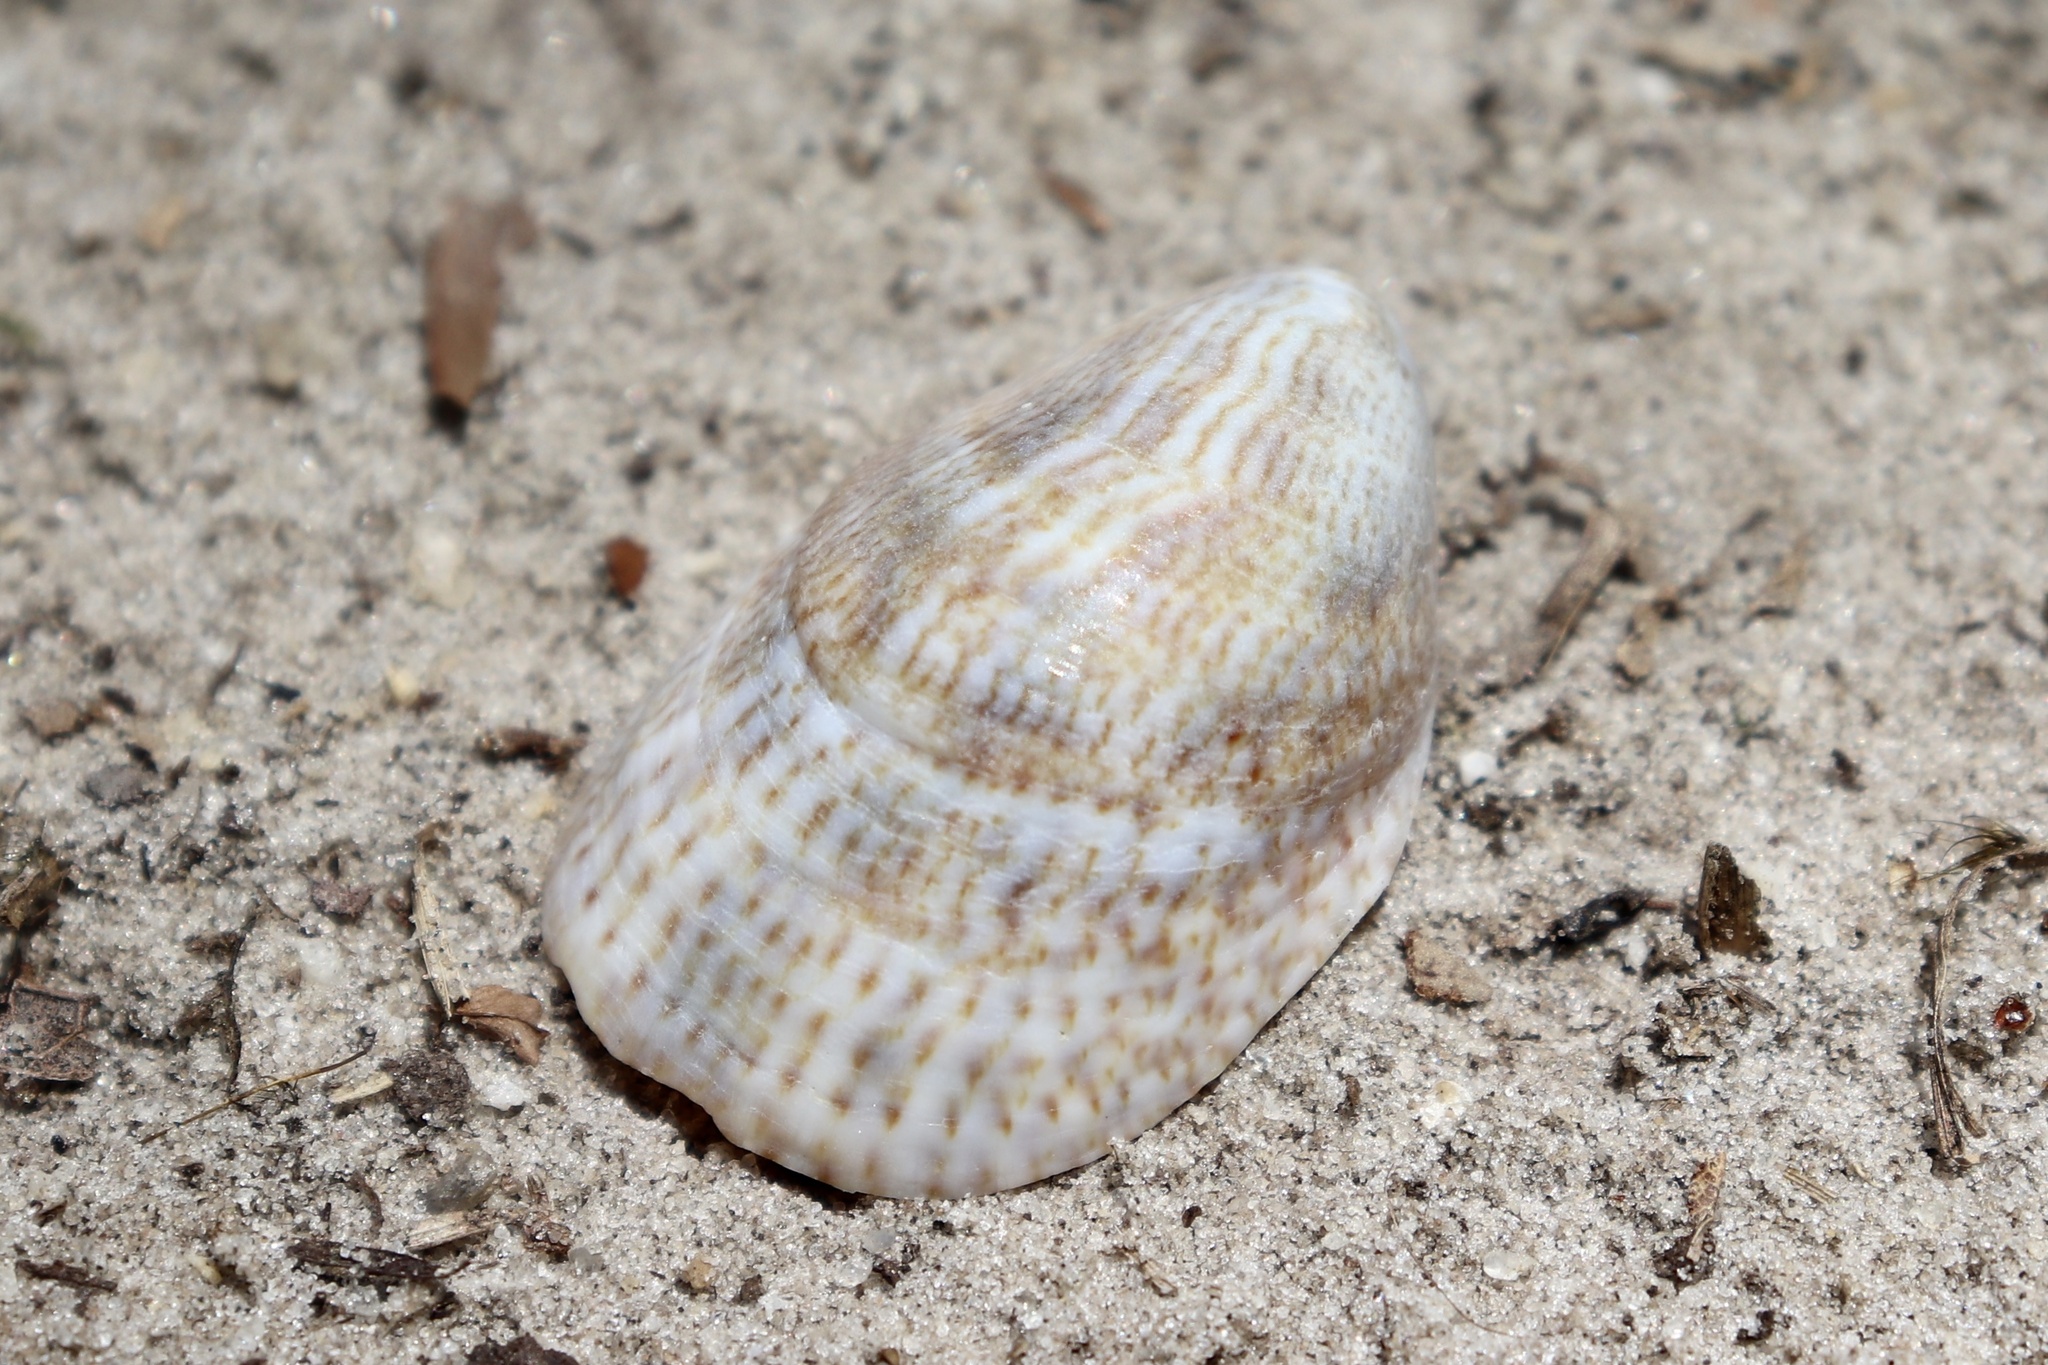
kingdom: Animalia
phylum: Mollusca
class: Gastropoda
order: Littorinimorpha
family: Calyptraeidae
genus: Crepidula
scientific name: Crepidula fornicata
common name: Slipper limpet
